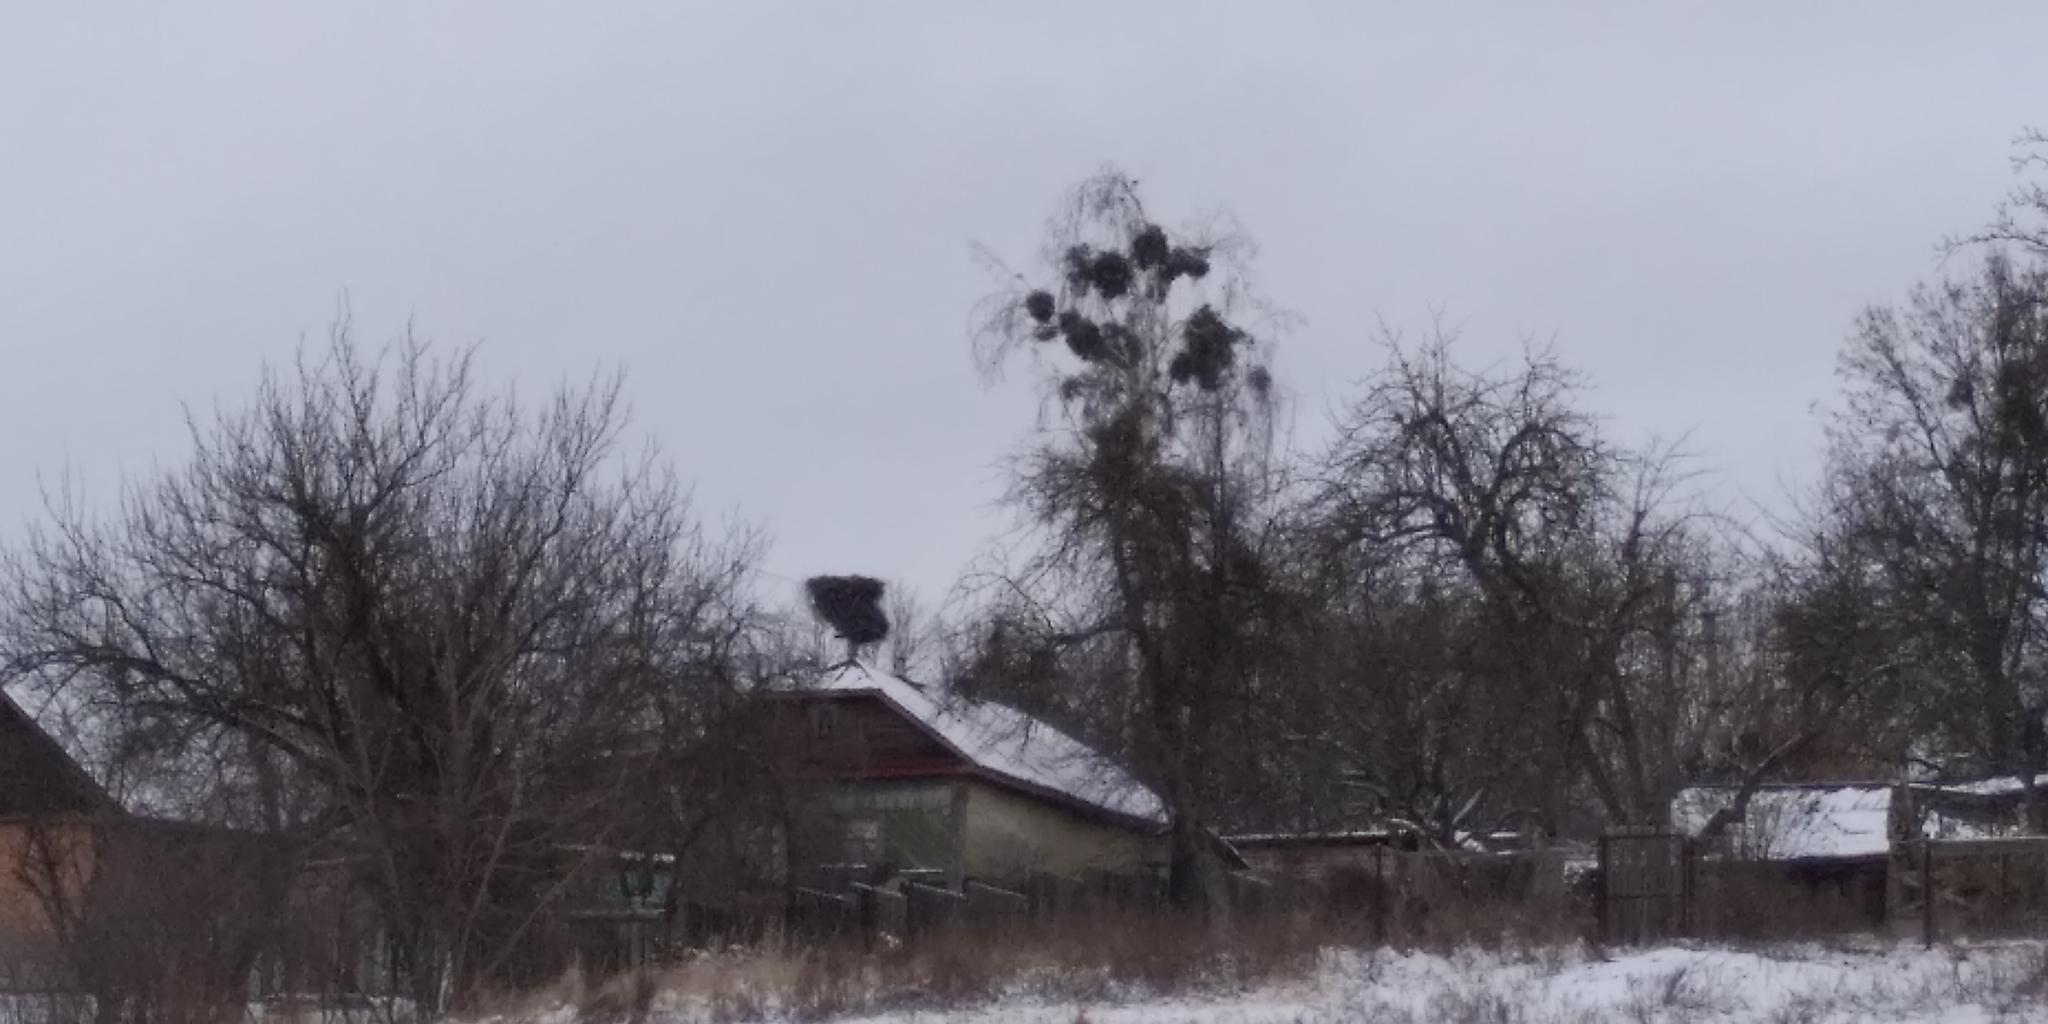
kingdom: Animalia
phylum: Chordata
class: Aves
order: Ciconiiformes
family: Ciconiidae
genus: Ciconia
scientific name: Ciconia ciconia
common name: White stork
